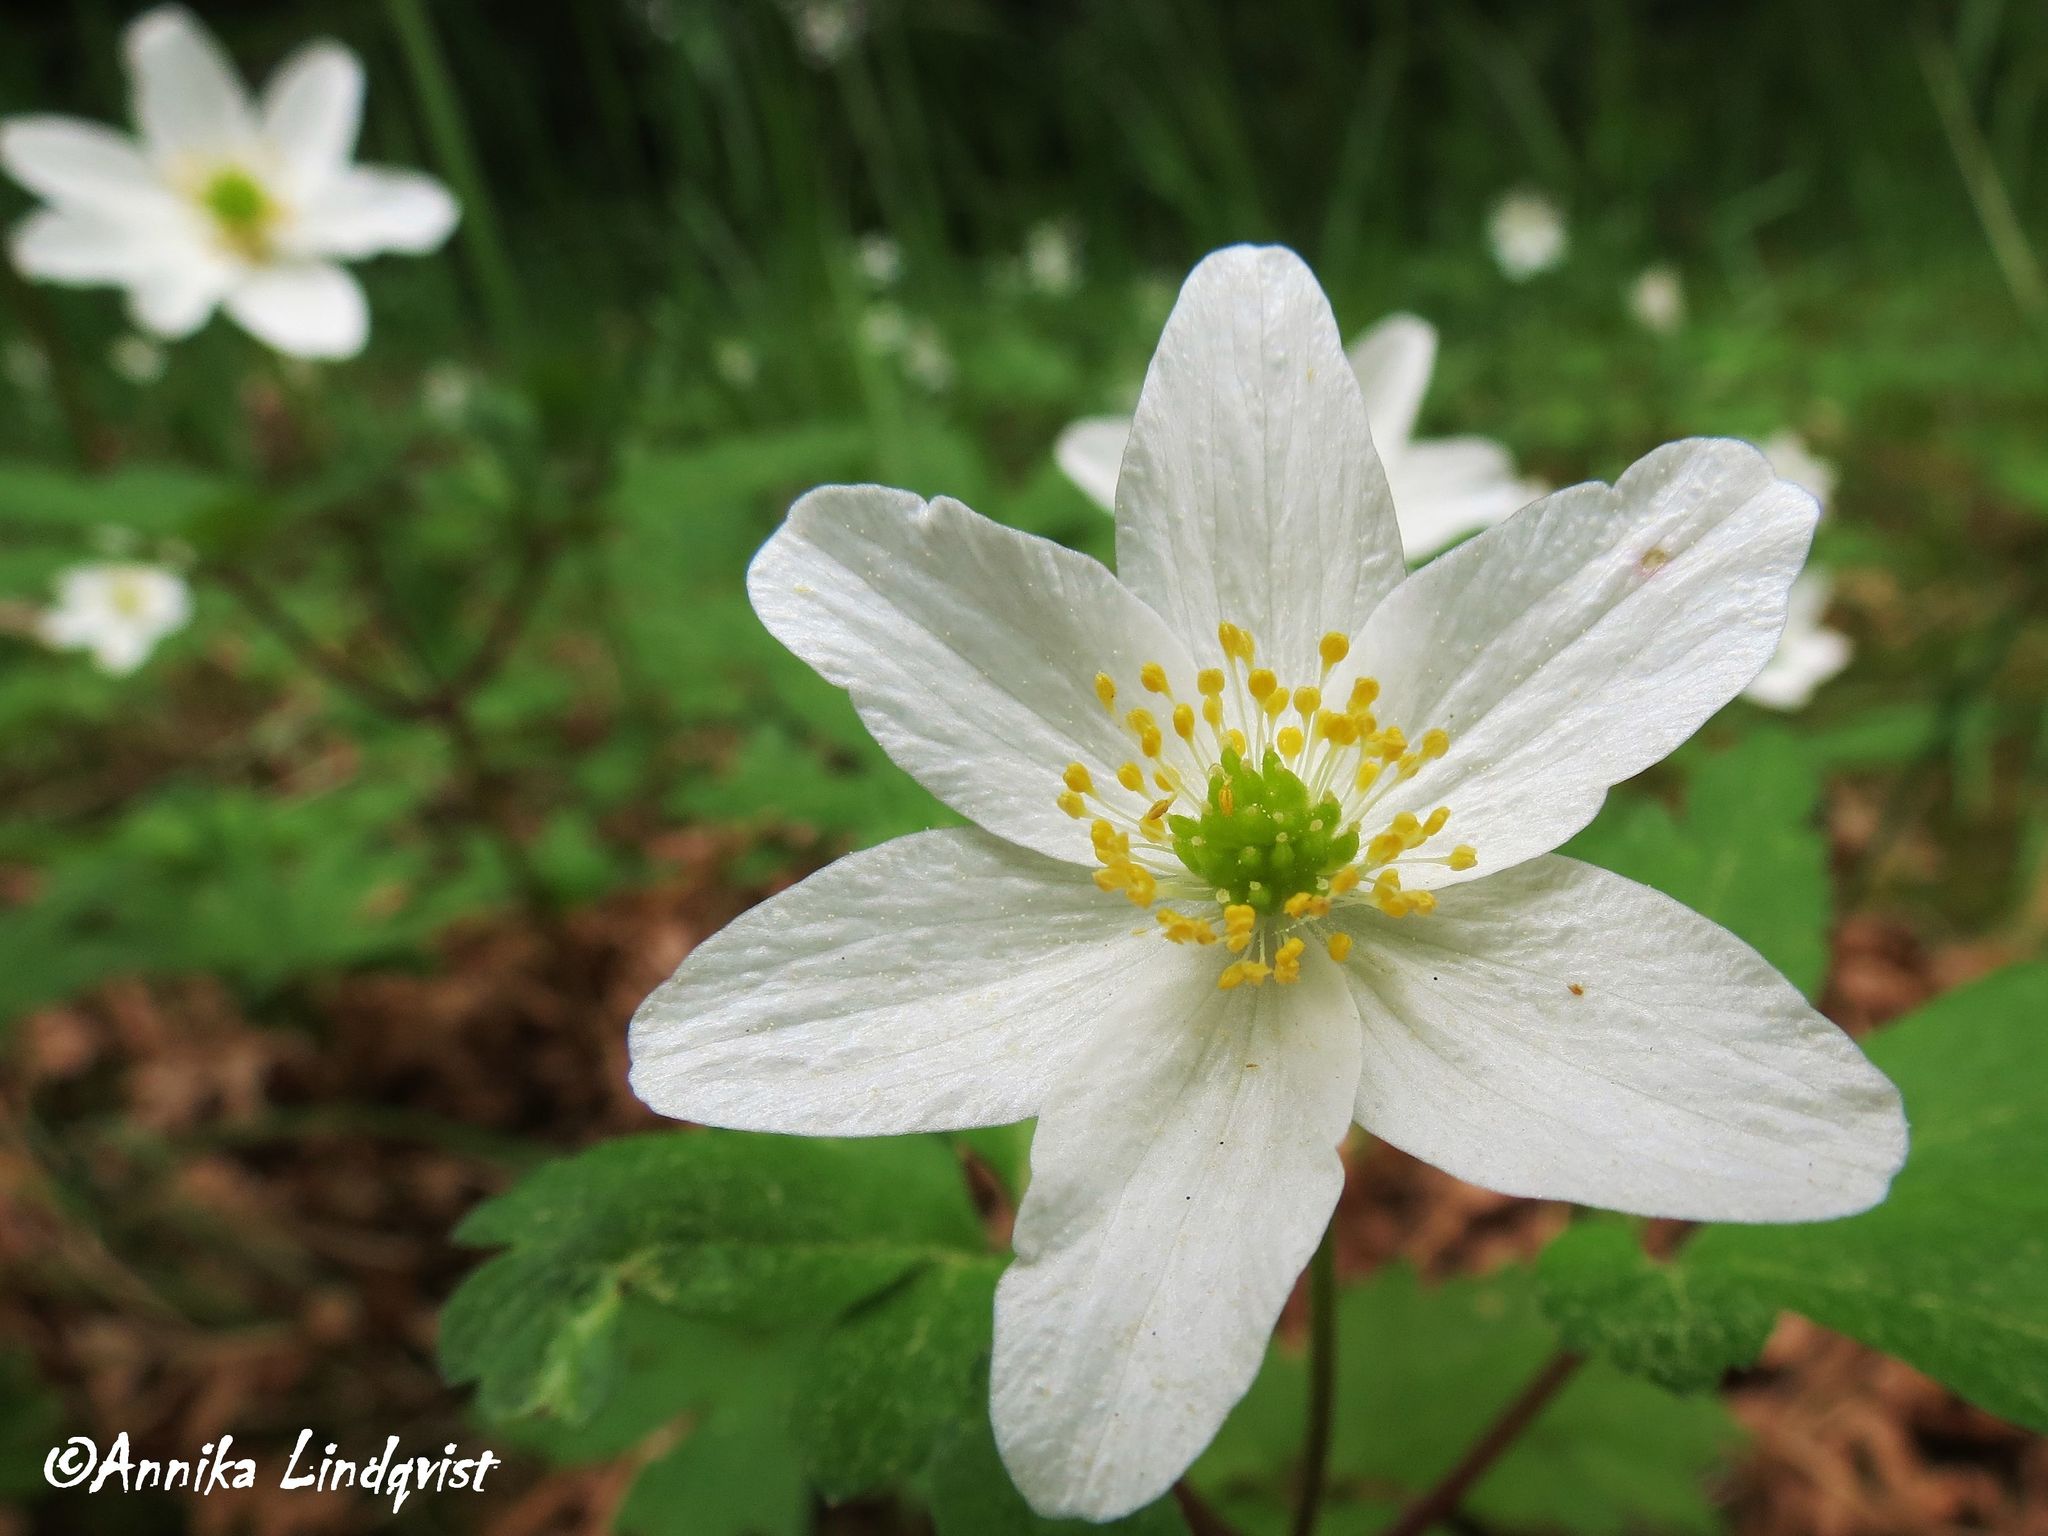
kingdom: Plantae
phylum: Tracheophyta
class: Magnoliopsida
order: Ranunculales
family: Ranunculaceae
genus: Anemone
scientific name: Anemone nemorosa
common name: Wood anemone
